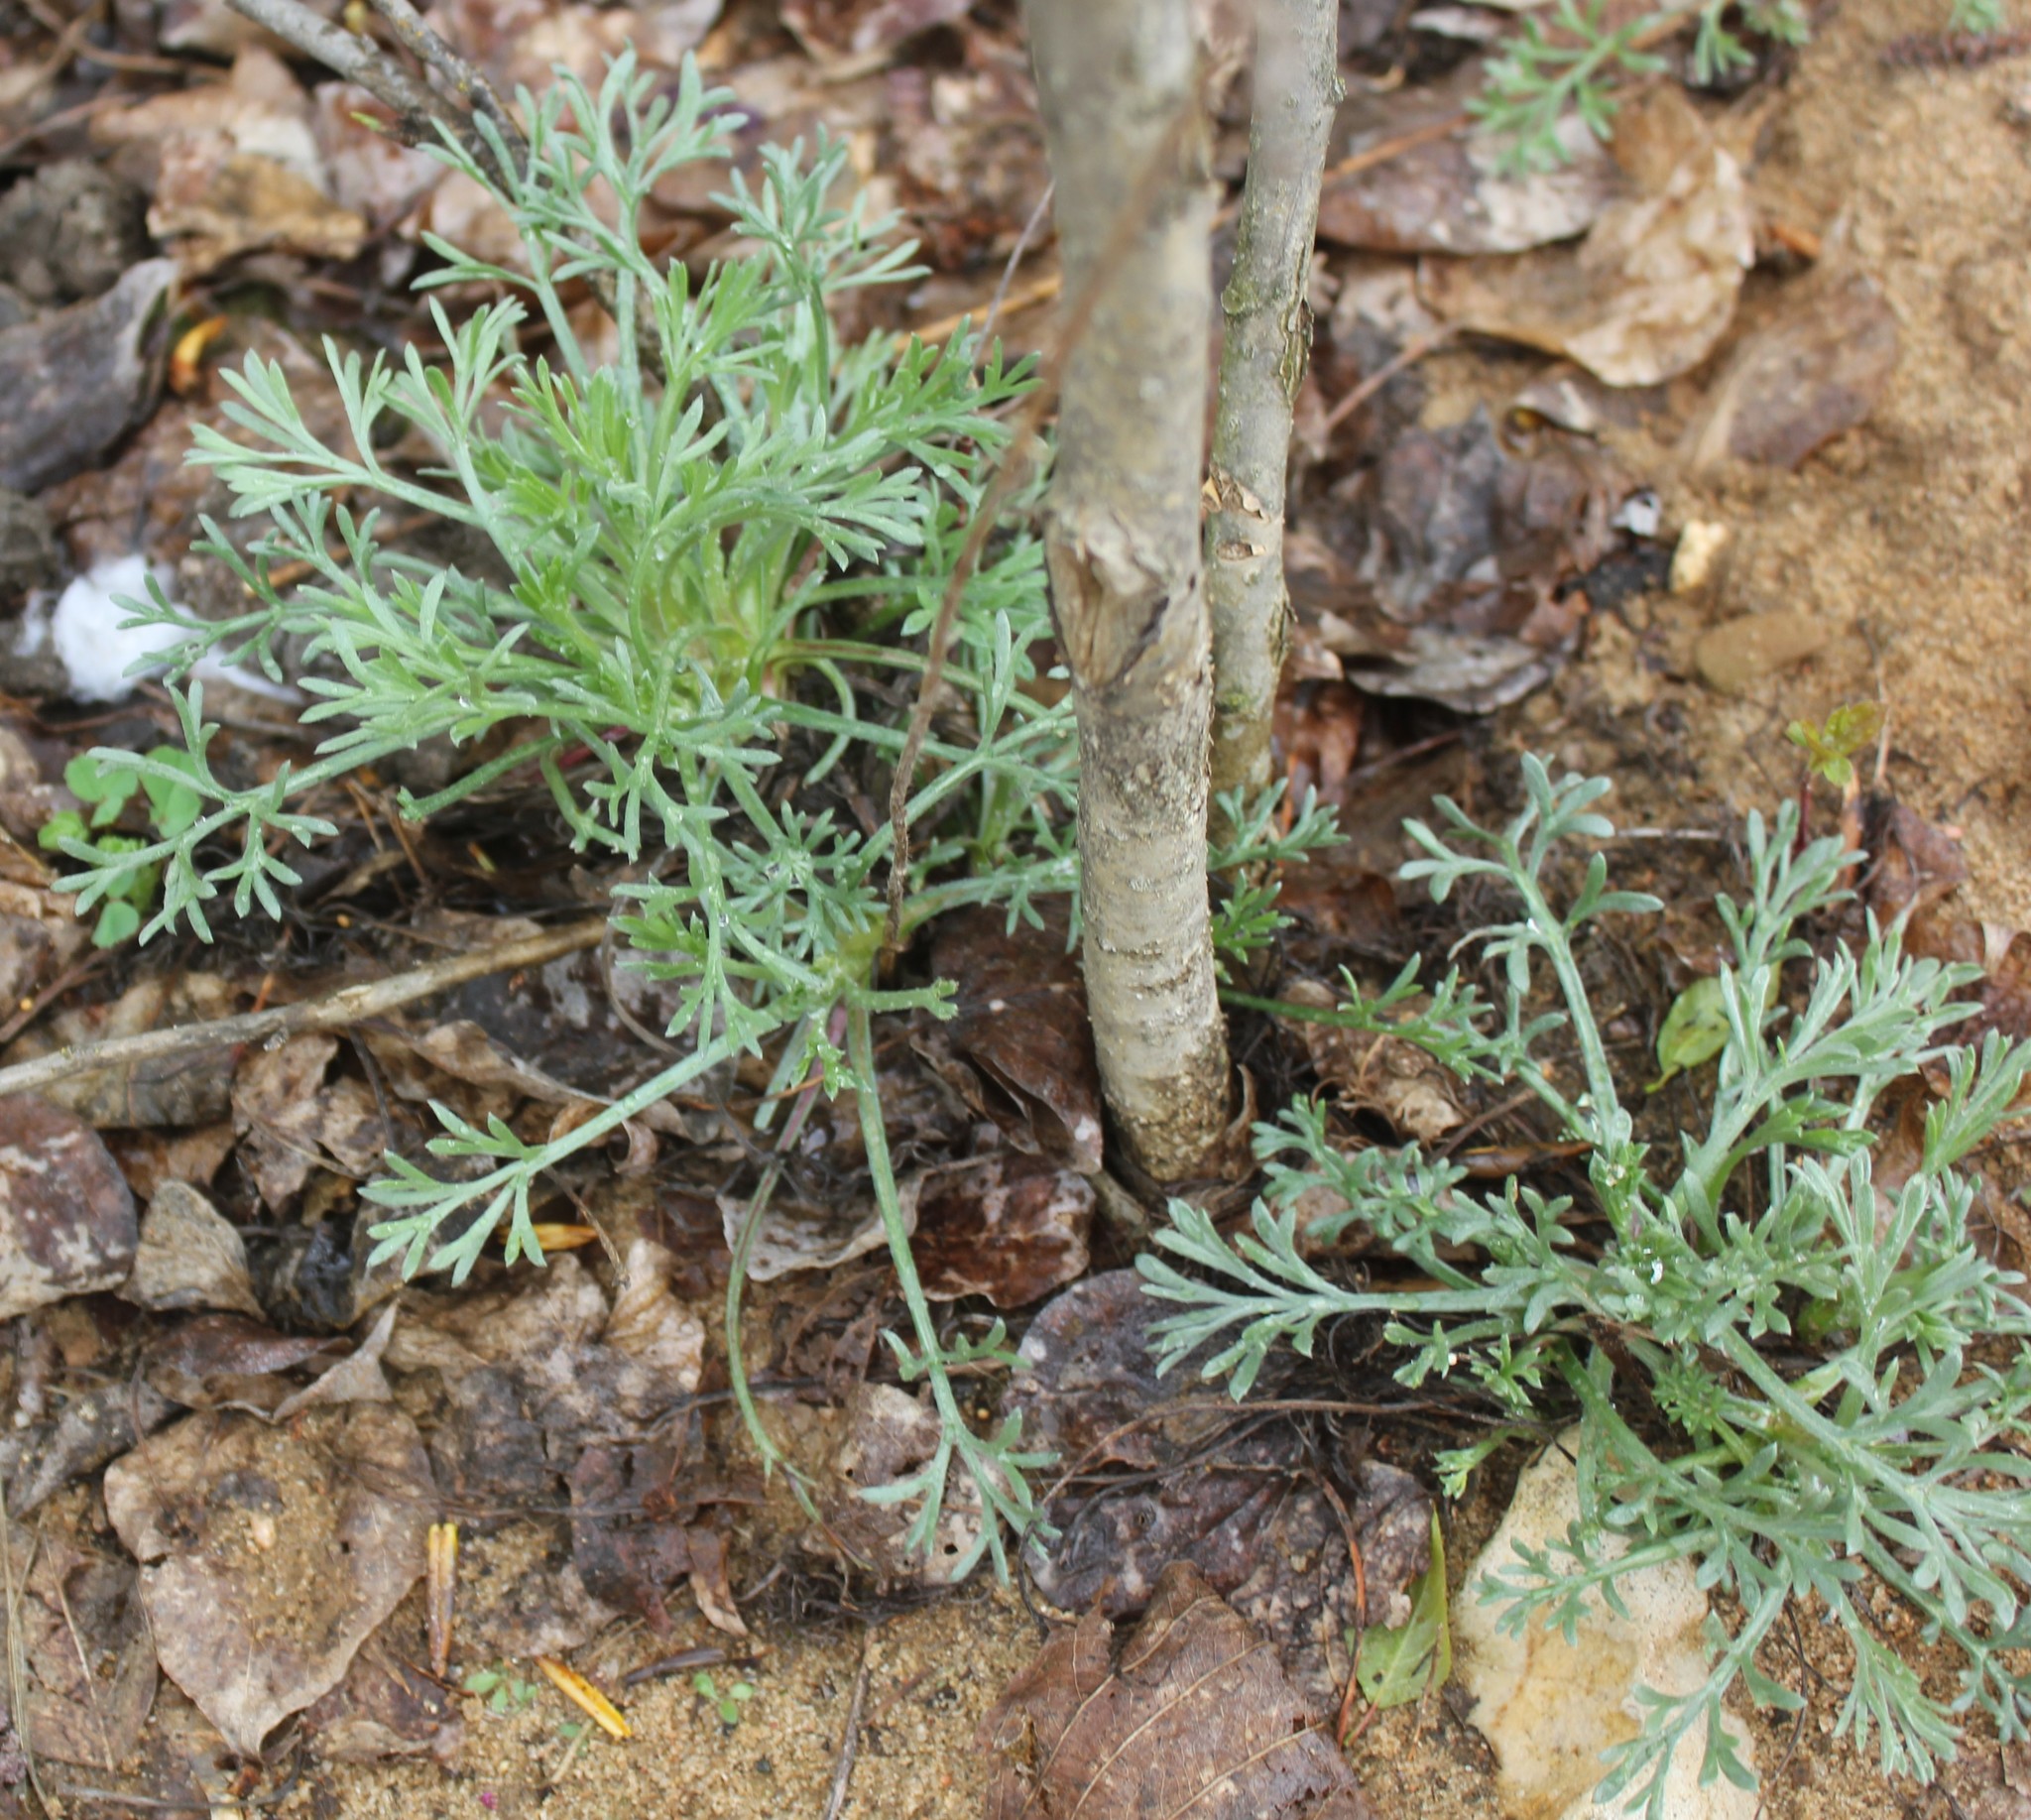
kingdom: Plantae
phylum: Tracheophyta
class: Magnoliopsida
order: Asterales
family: Asteraceae
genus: Artemisia
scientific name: Artemisia campestris
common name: Field wormwood
